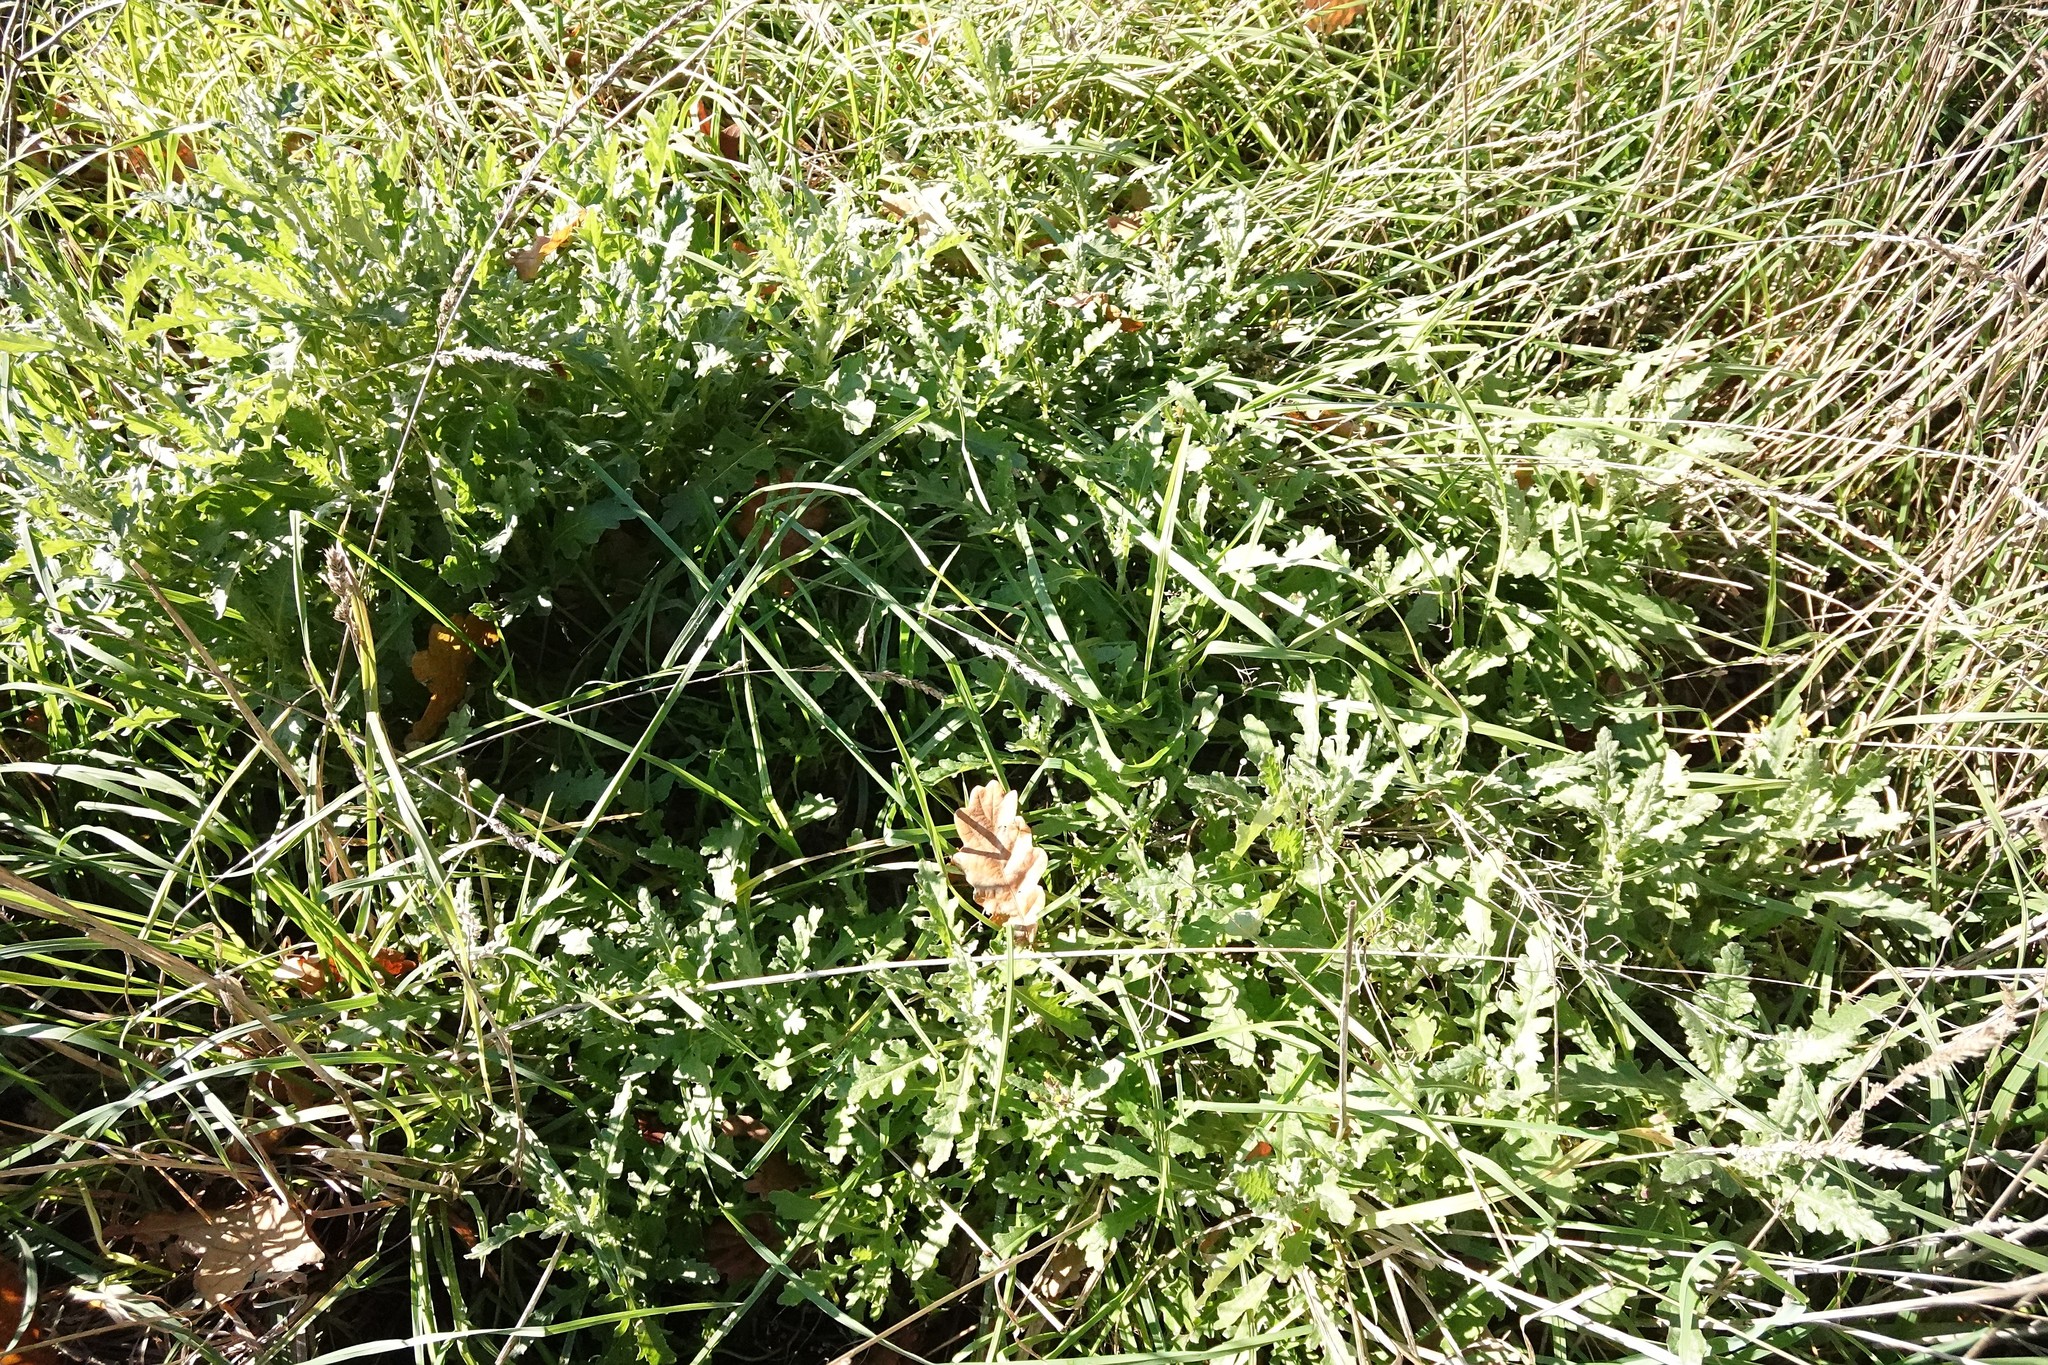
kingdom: Plantae
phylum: Tracheophyta
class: Magnoliopsida
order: Asterales
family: Asteraceae
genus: Senecio
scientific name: Senecio glomeratus
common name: Cutleaf burnweed
